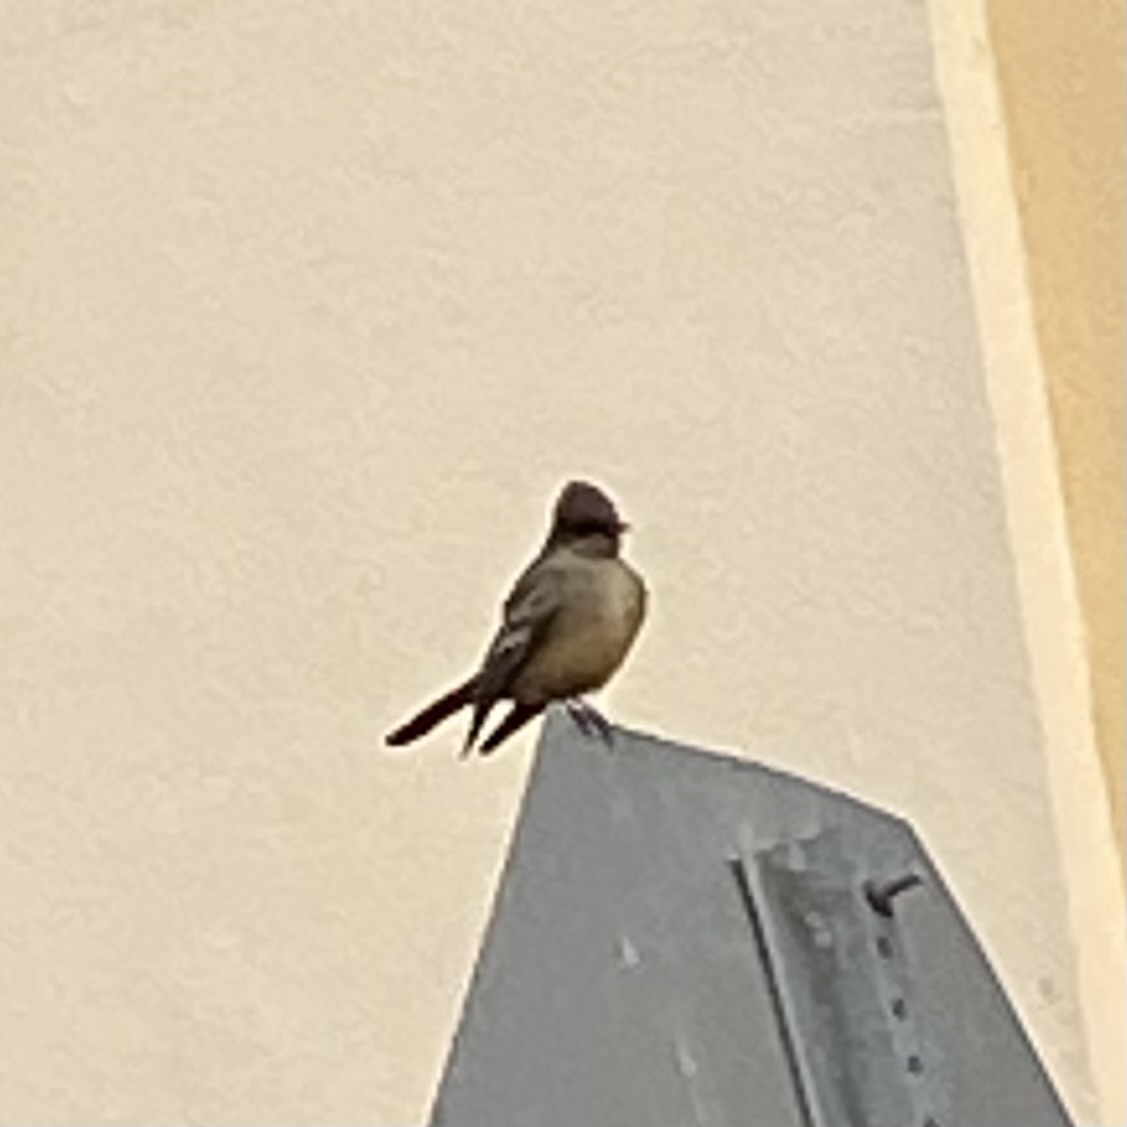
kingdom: Animalia
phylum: Chordata
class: Aves
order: Passeriformes
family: Tyrannidae
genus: Sayornis
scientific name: Sayornis saya
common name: Say's phoebe
